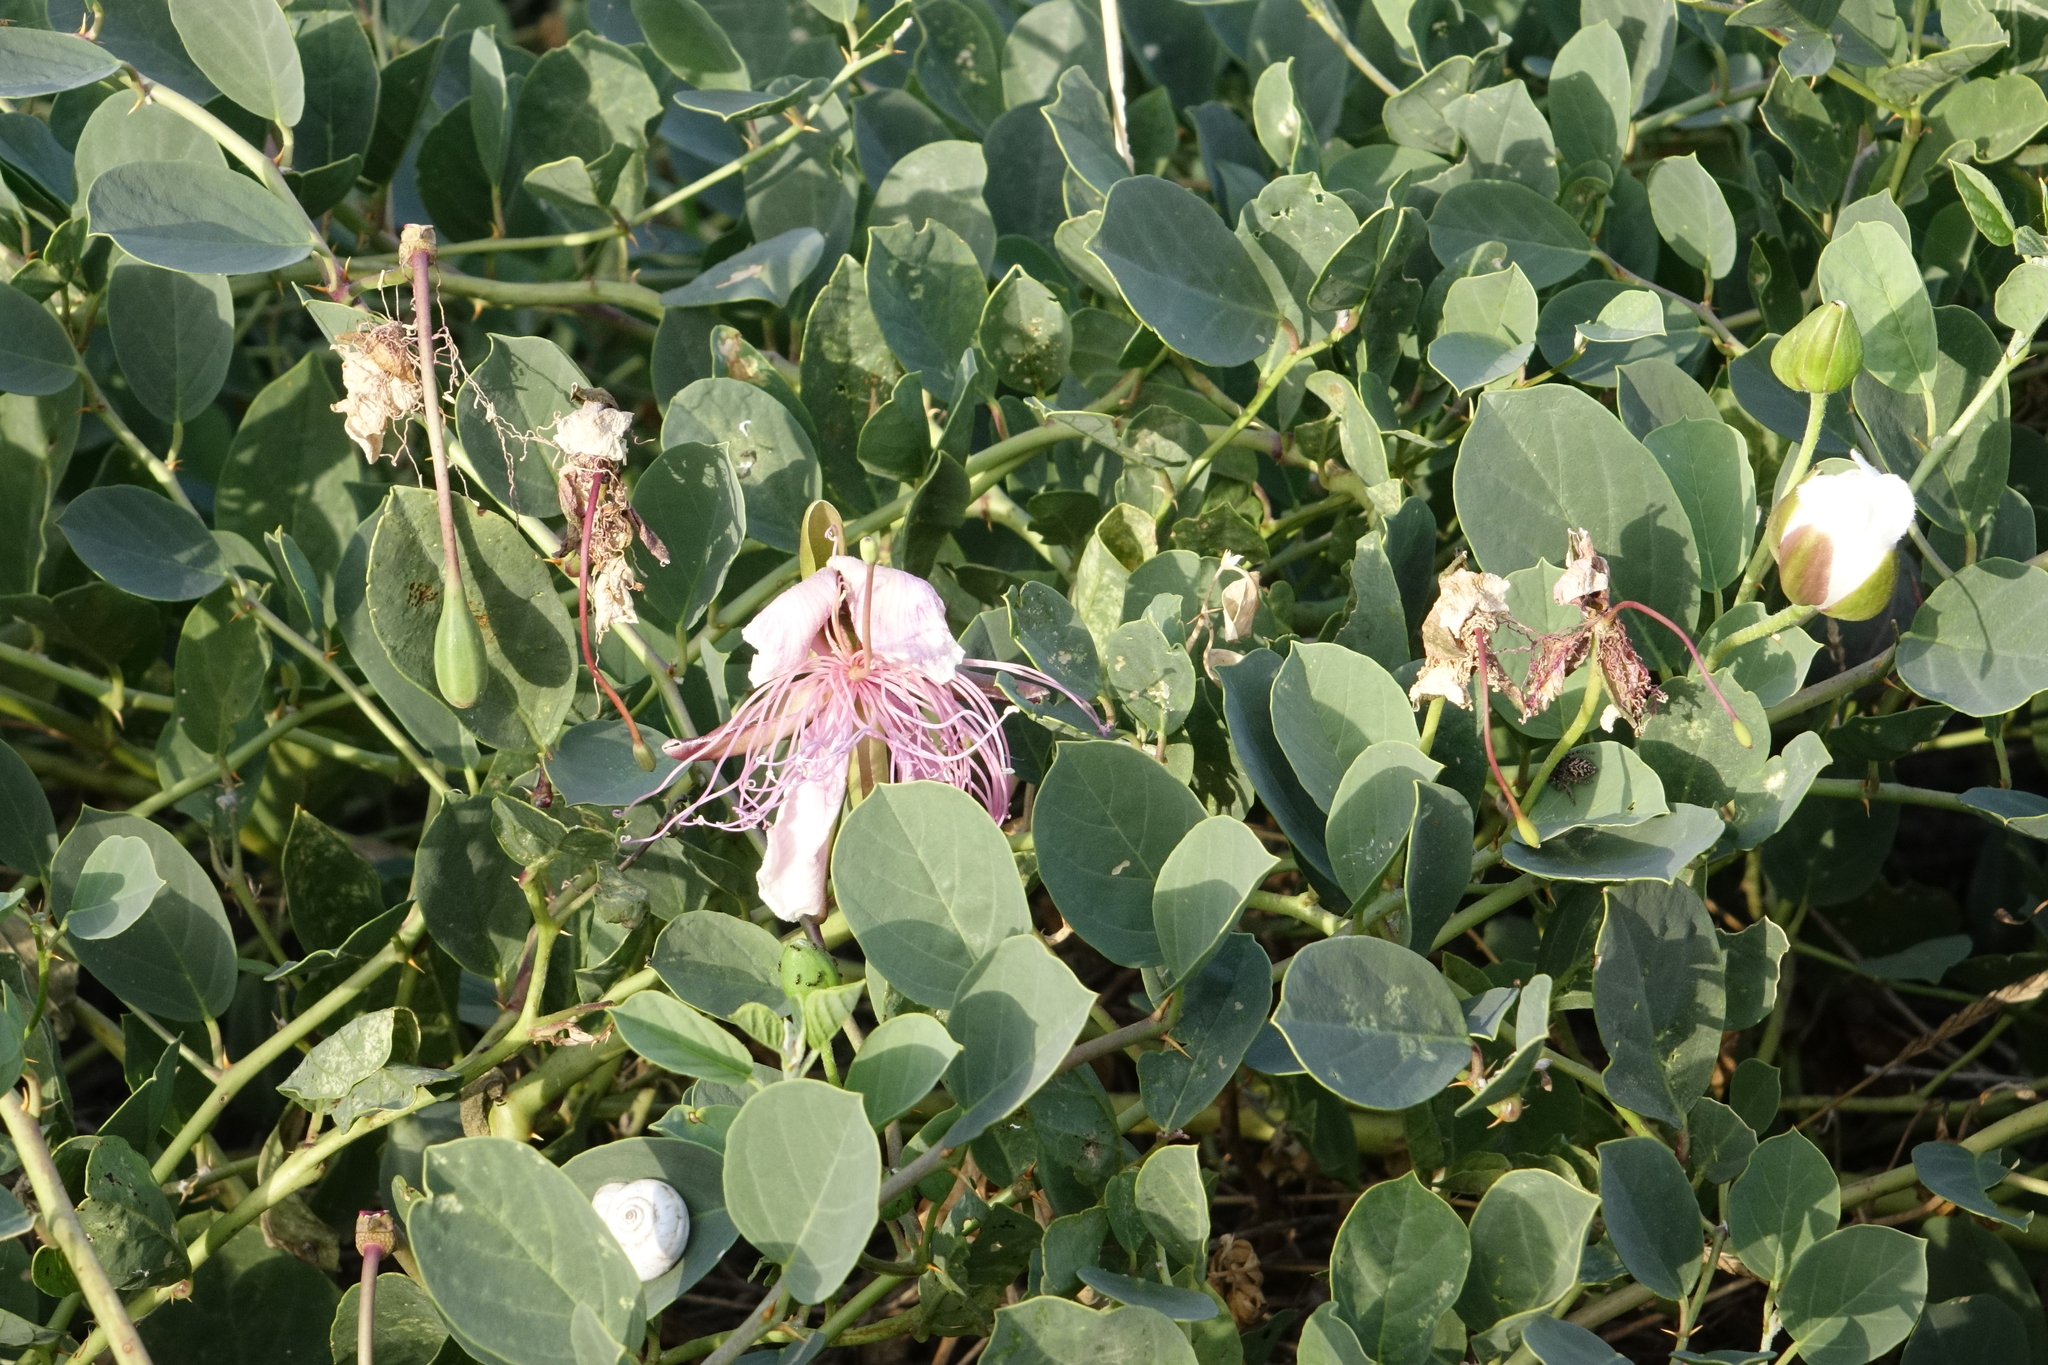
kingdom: Plantae
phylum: Tracheophyta
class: Magnoliopsida
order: Brassicales
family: Capparaceae
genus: Capparis
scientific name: Capparis spinosa
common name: Caper
